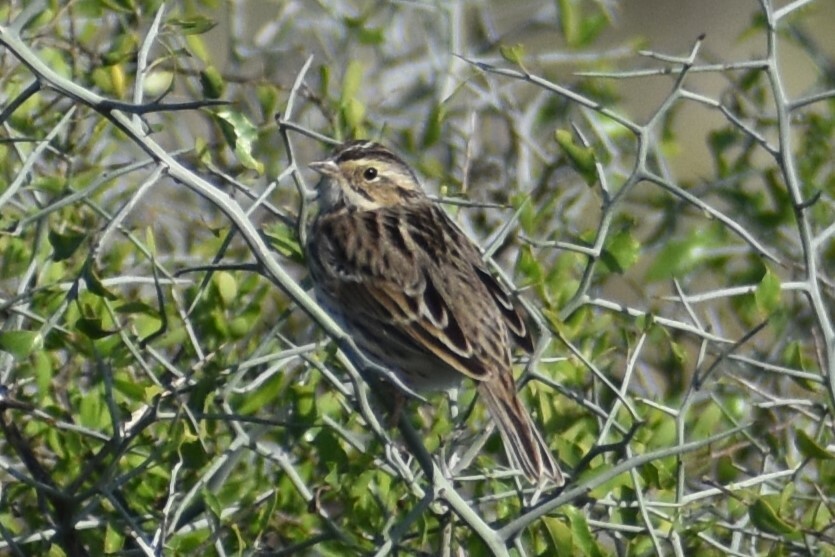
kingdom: Animalia
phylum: Chordata
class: Aves
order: Passeriformes
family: Passerellidae
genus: Passerculus
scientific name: Passerculus sandwichensis
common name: Savannah sparrow
